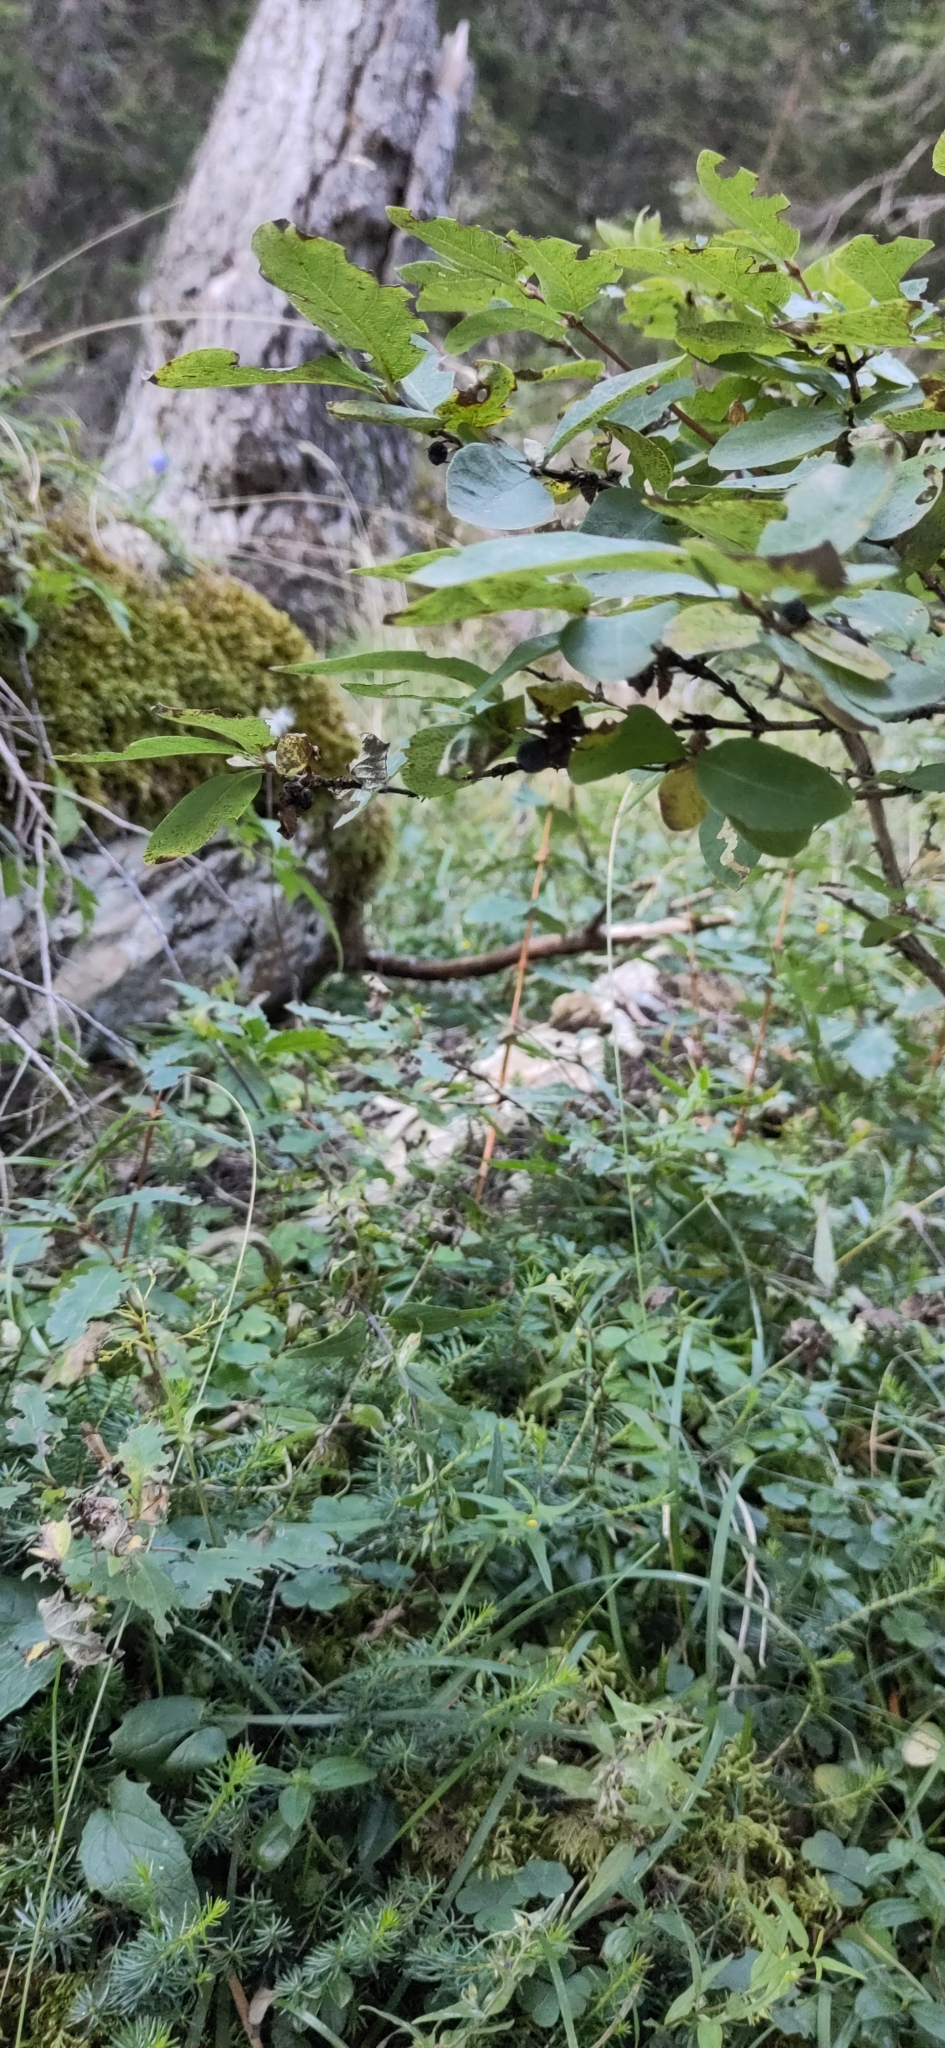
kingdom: Plantae
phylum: Tracheophyta
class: Magnoliopsida
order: Dipsacales
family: Caprifoliaceae
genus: Lonicera
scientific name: Lonicera nigra
